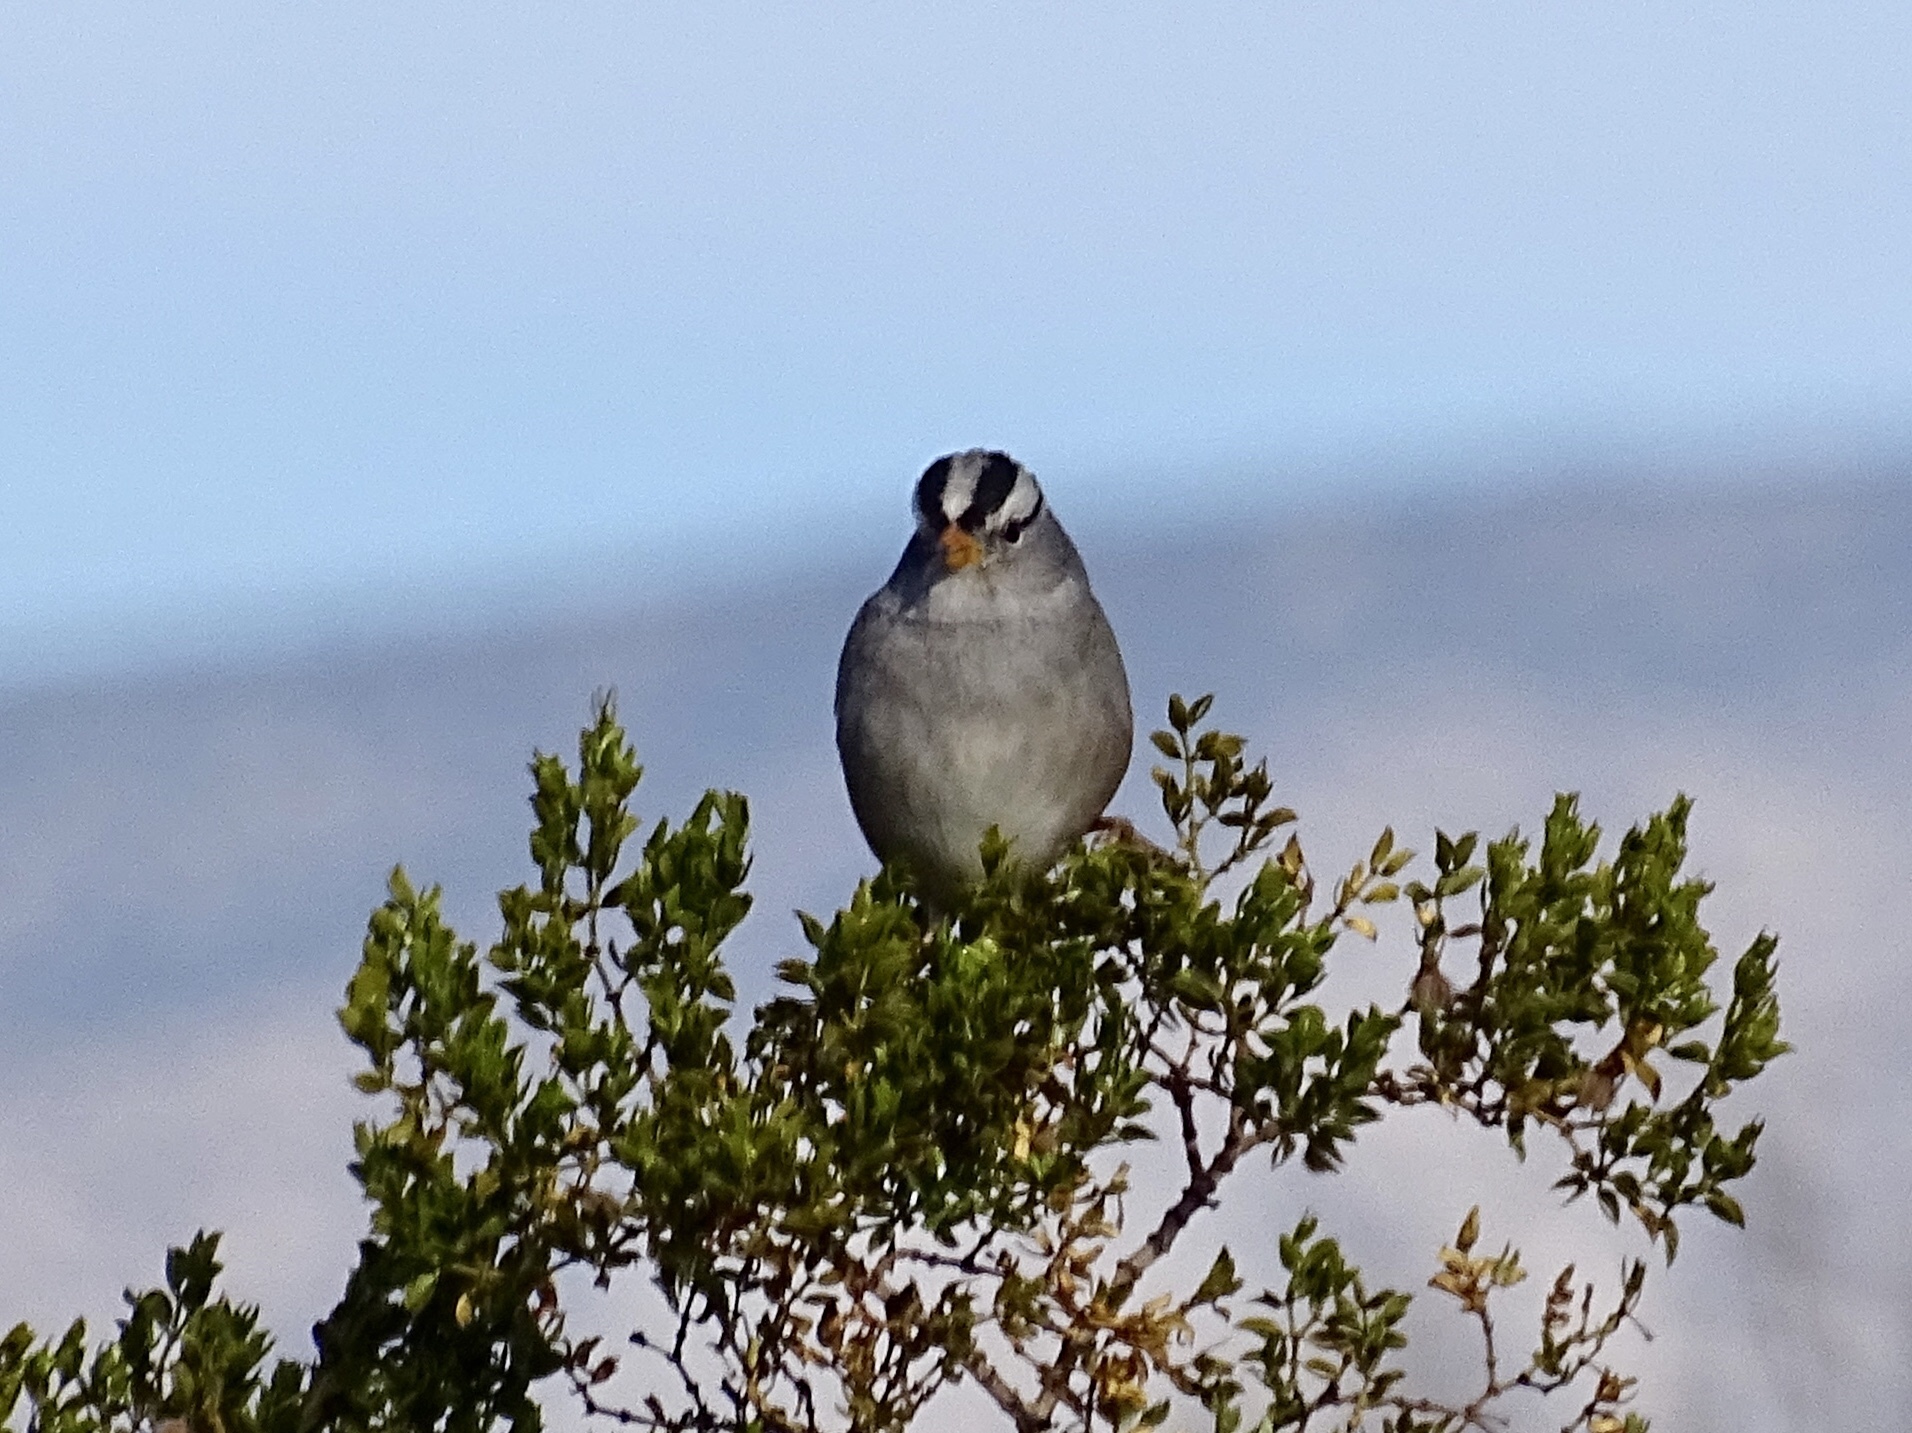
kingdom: Animalia
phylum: Chordata
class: Aves
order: Passeriformes
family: Passerellidae
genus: Zonotrichia
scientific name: Zonotrichia leucophrys
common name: White-crowned sparrow
